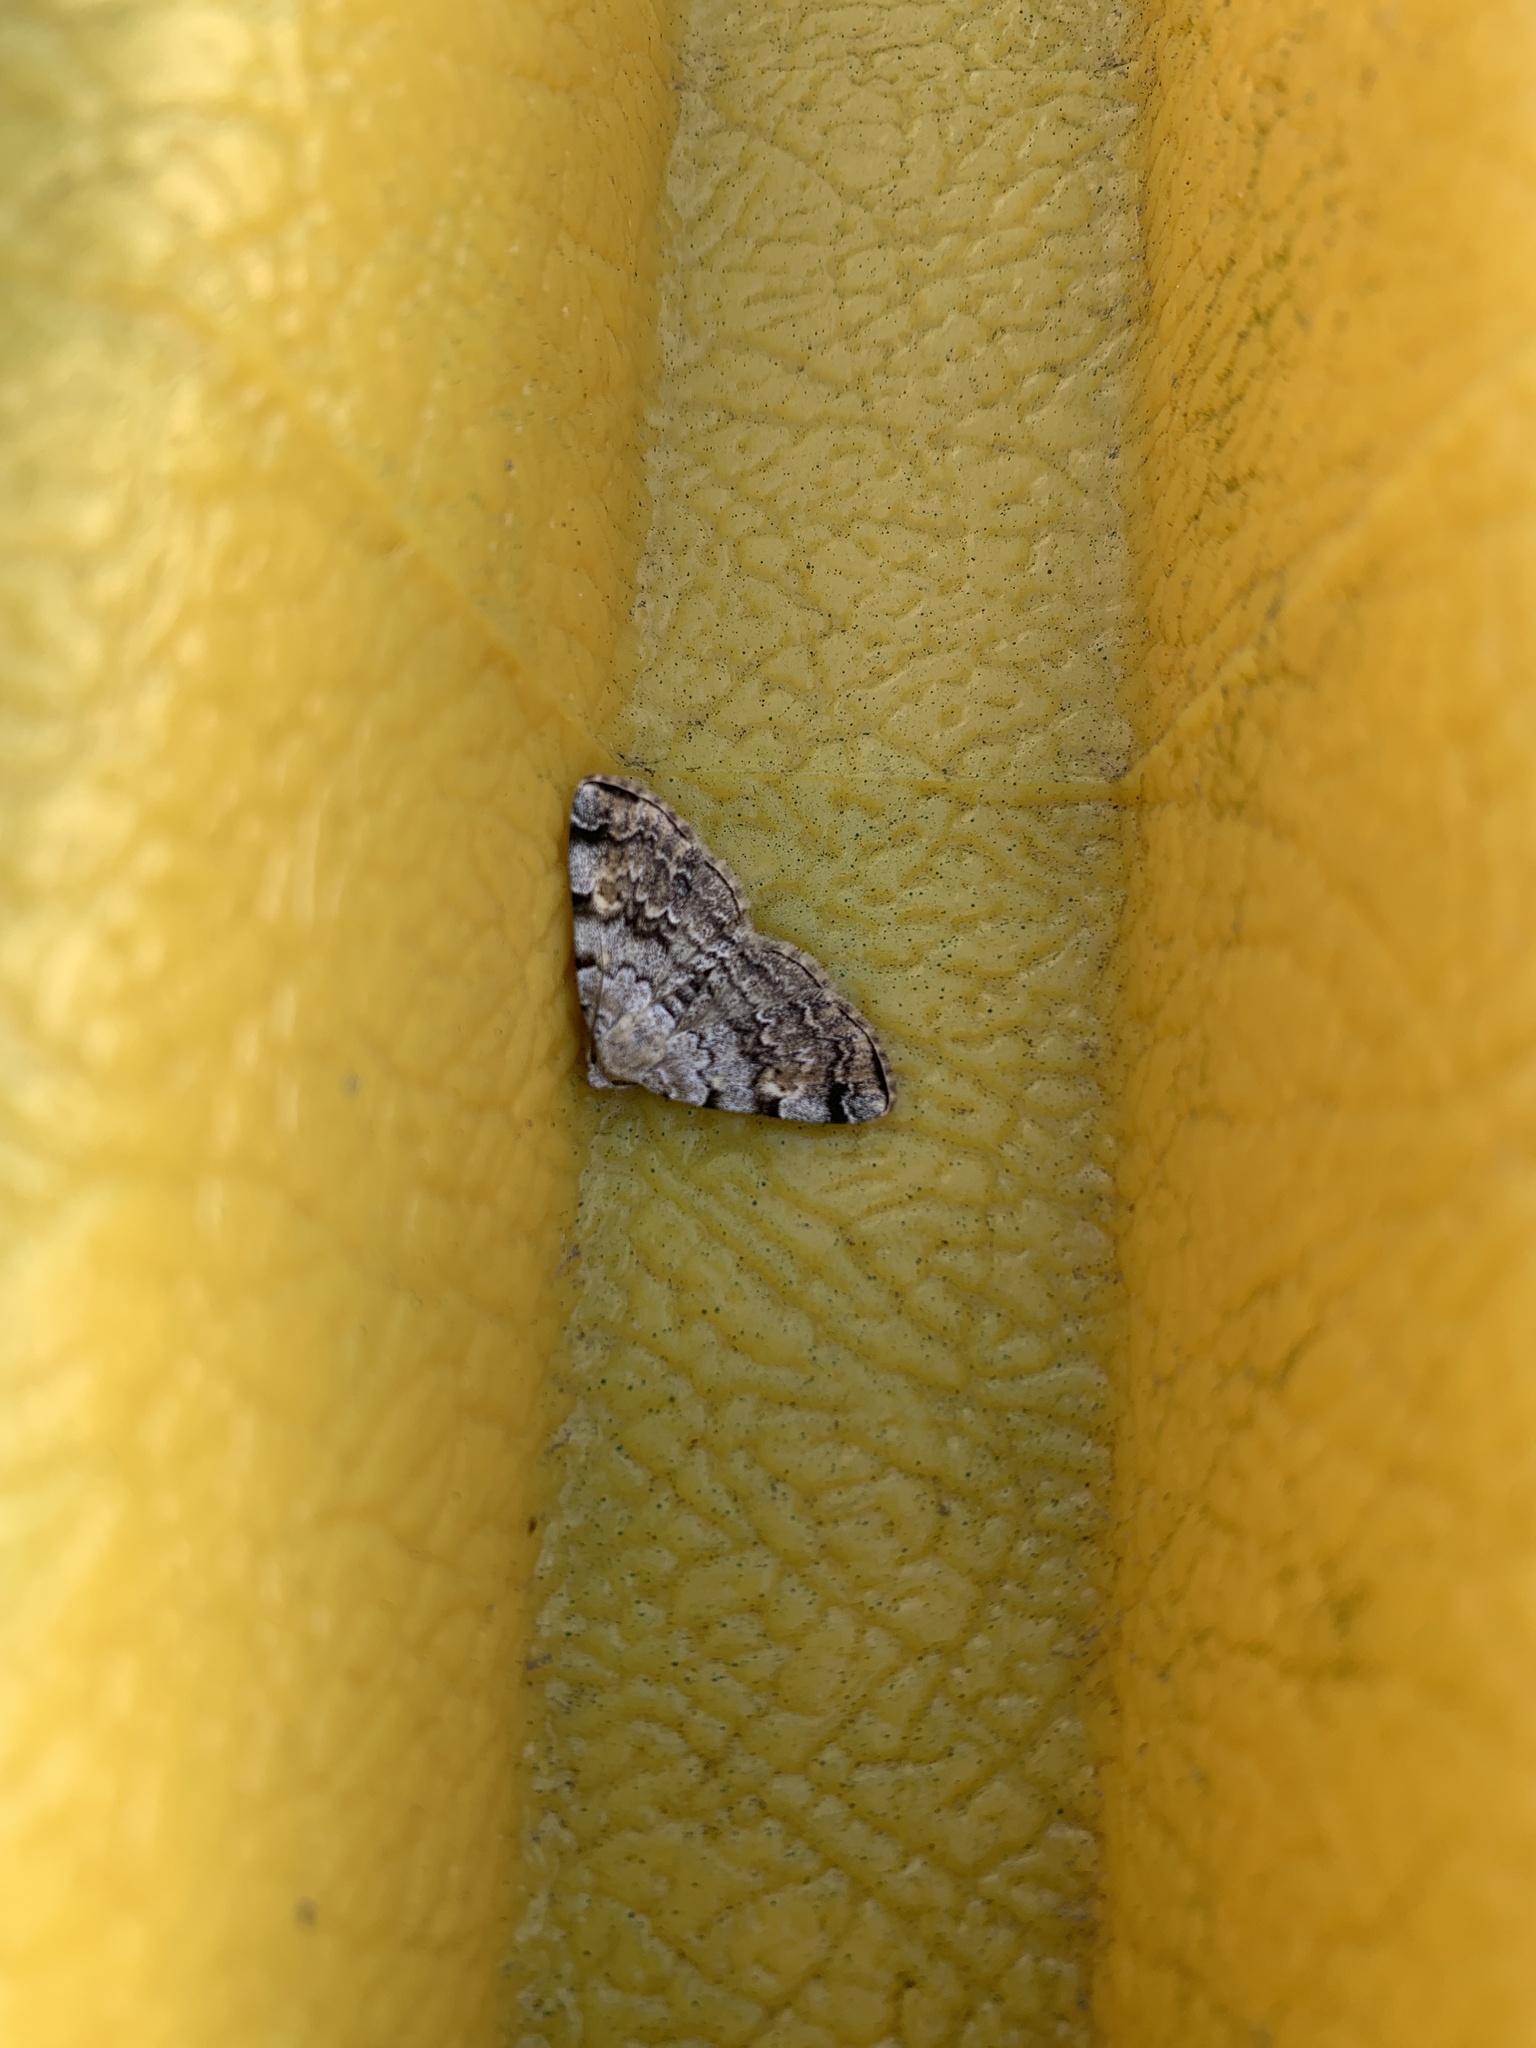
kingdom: Animalia
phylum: Arthropoda
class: Insecta
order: Lepidoptera
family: Erebidae
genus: Idia
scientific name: Idia americalis
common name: American idia moth
